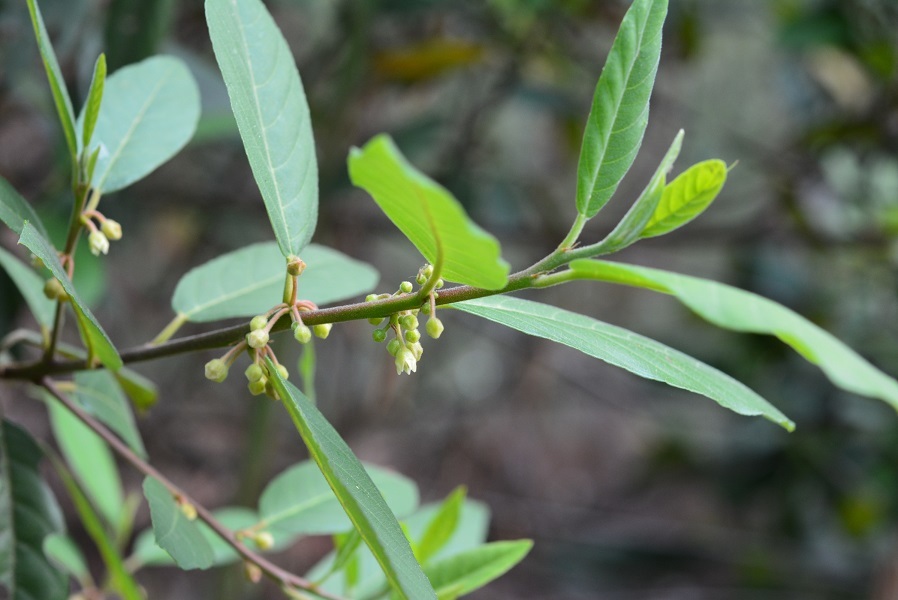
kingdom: Plantae
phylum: Tracheophyta
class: Magnoliopsida
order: Rosales
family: Rhamnaceae
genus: Frangula
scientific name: Frangula mucronata
